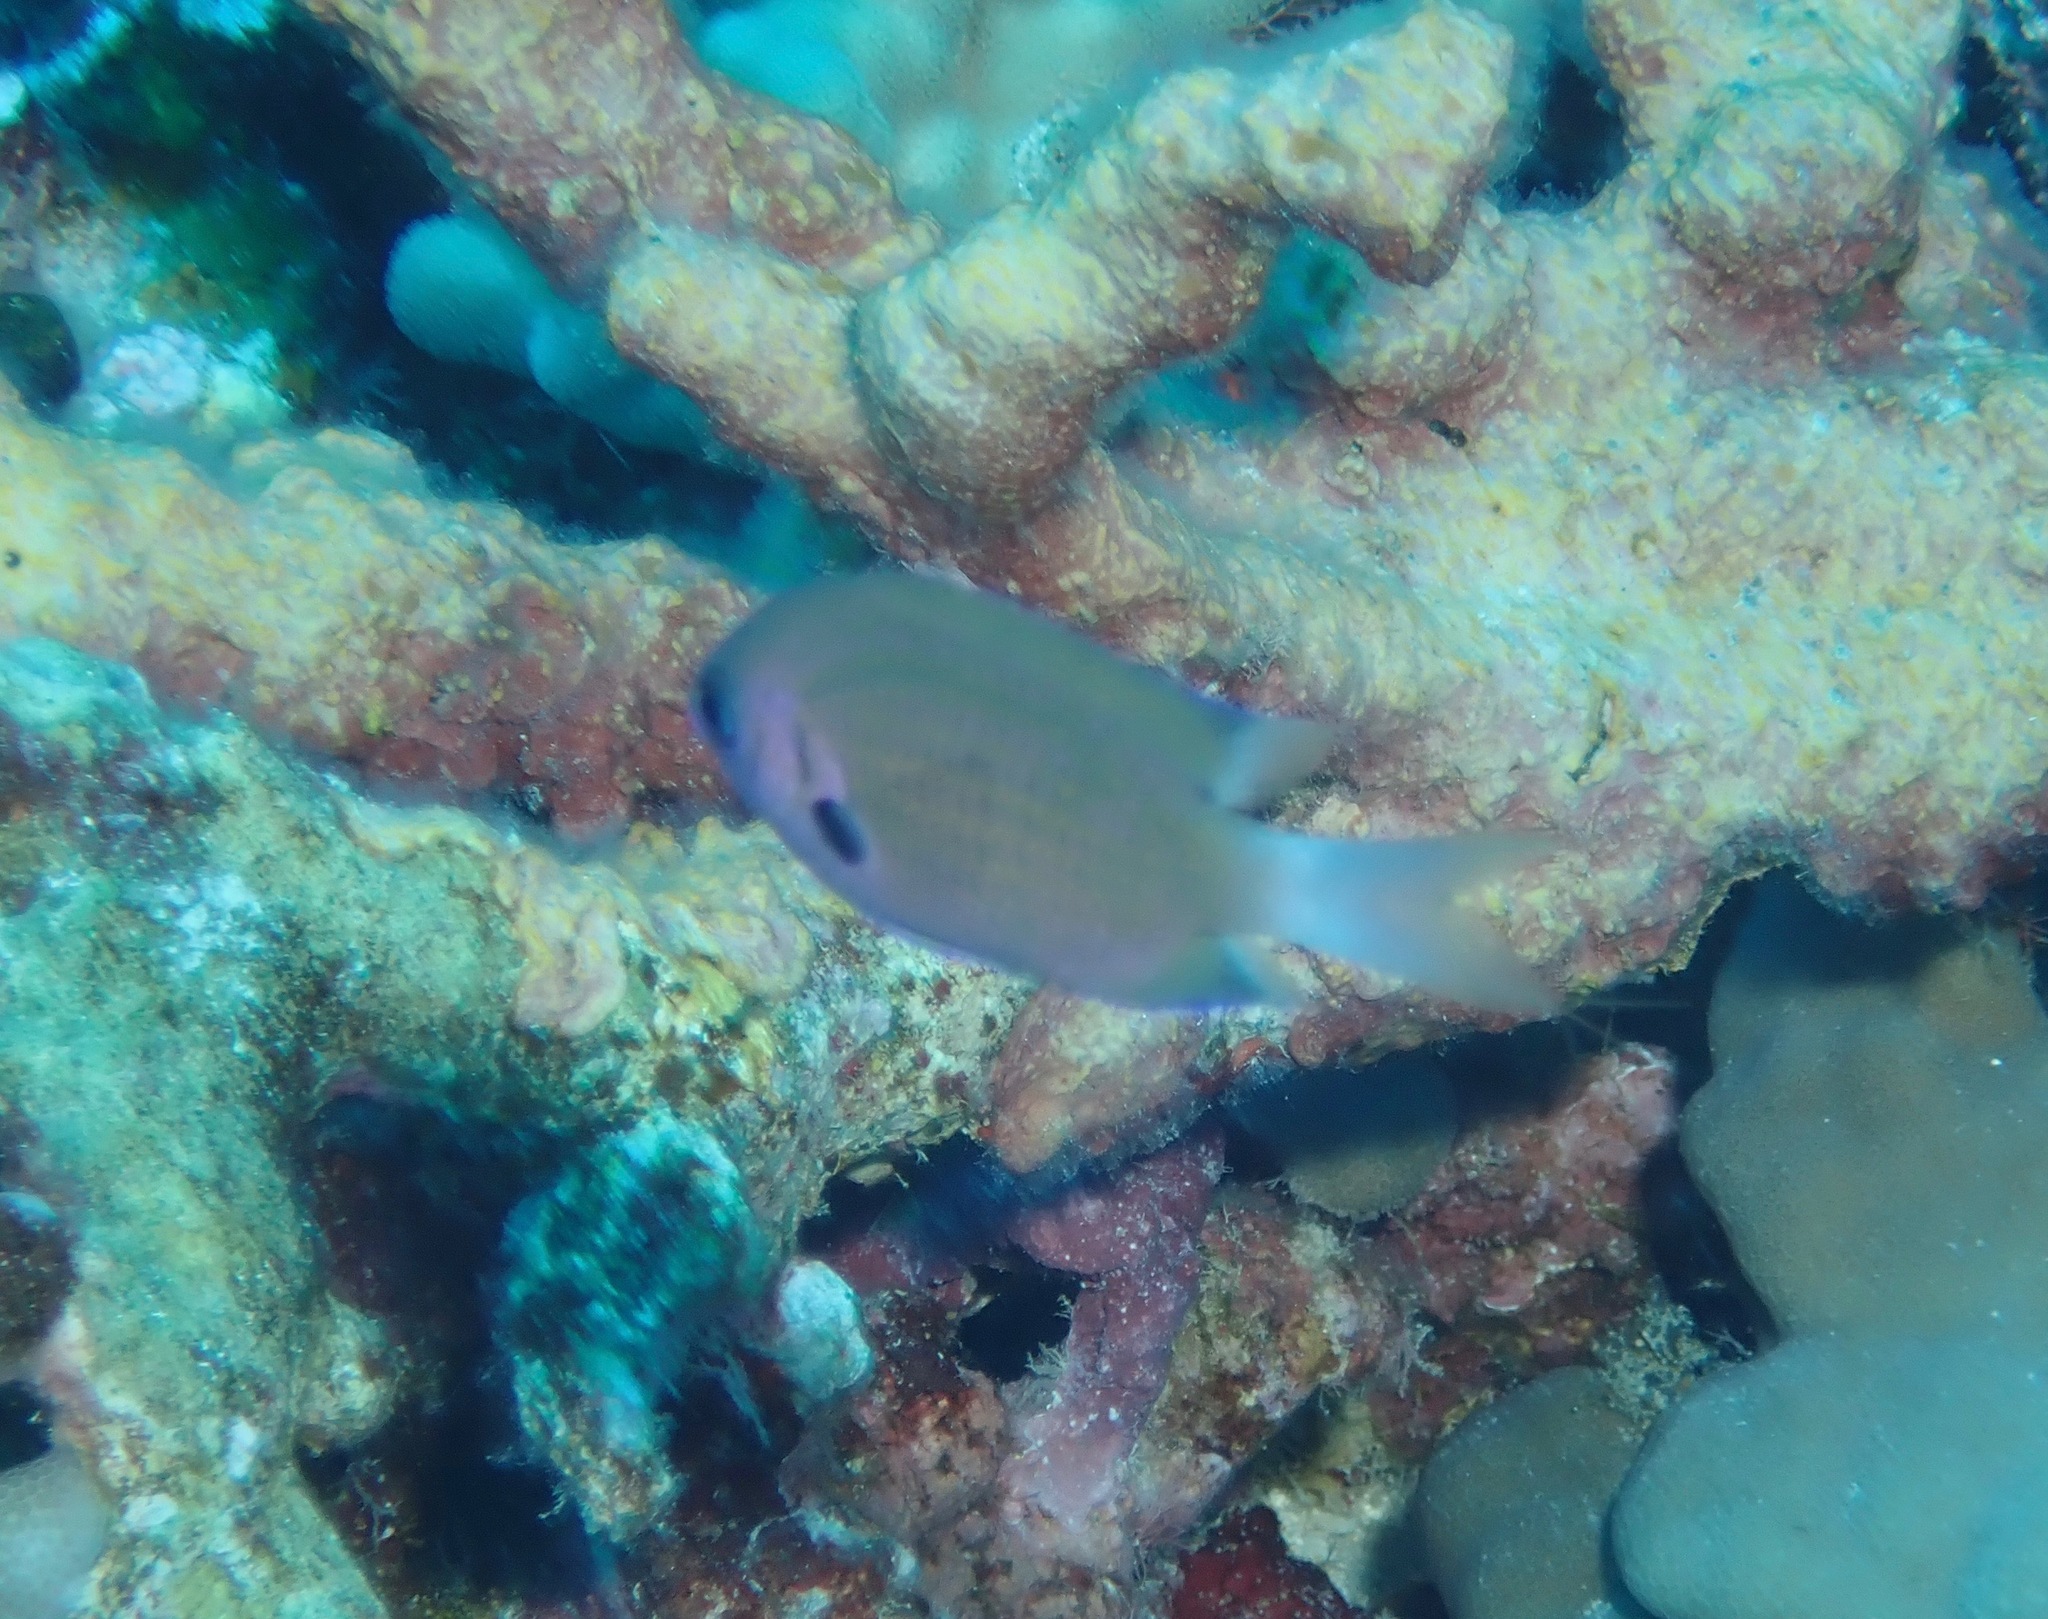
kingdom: Animalia
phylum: Chordata
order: Perciformes
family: Pomacentridae
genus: Pycnochromis
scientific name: Pycnochromis pacifica
